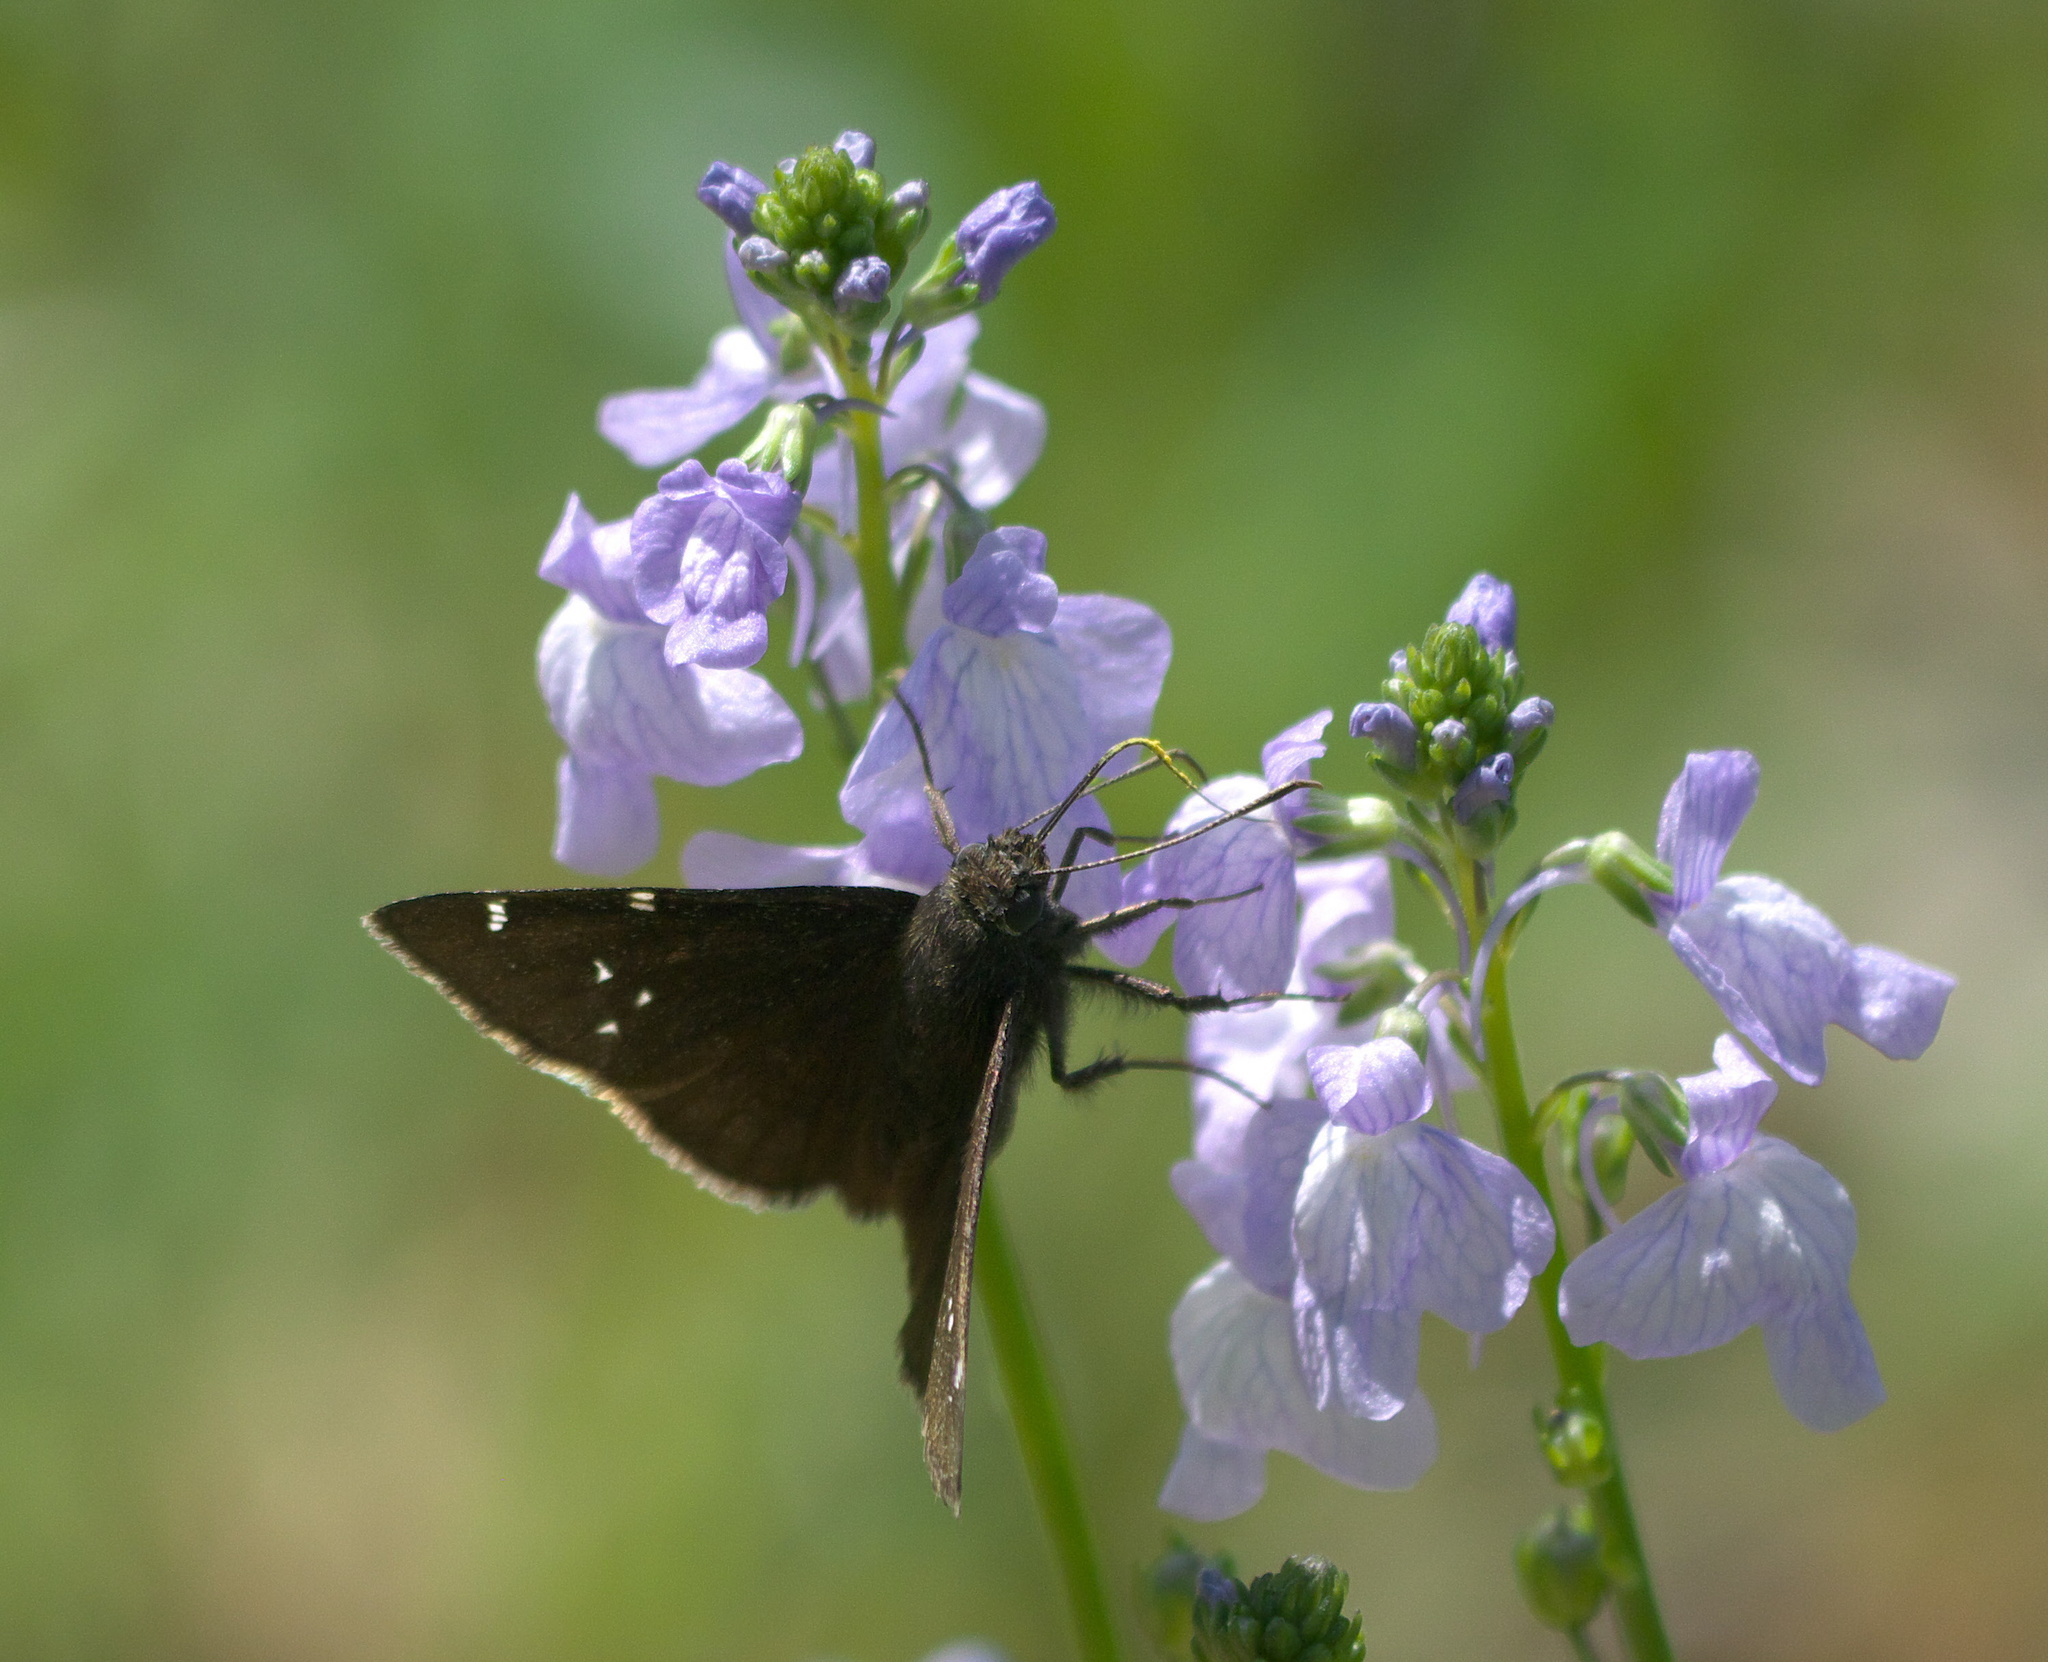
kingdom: Animalia
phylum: Arthropoda
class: Insecta
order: Lepidoptera
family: Hesperiidae
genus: Thorybes
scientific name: Thorybes pylades
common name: Northern cloudywing
